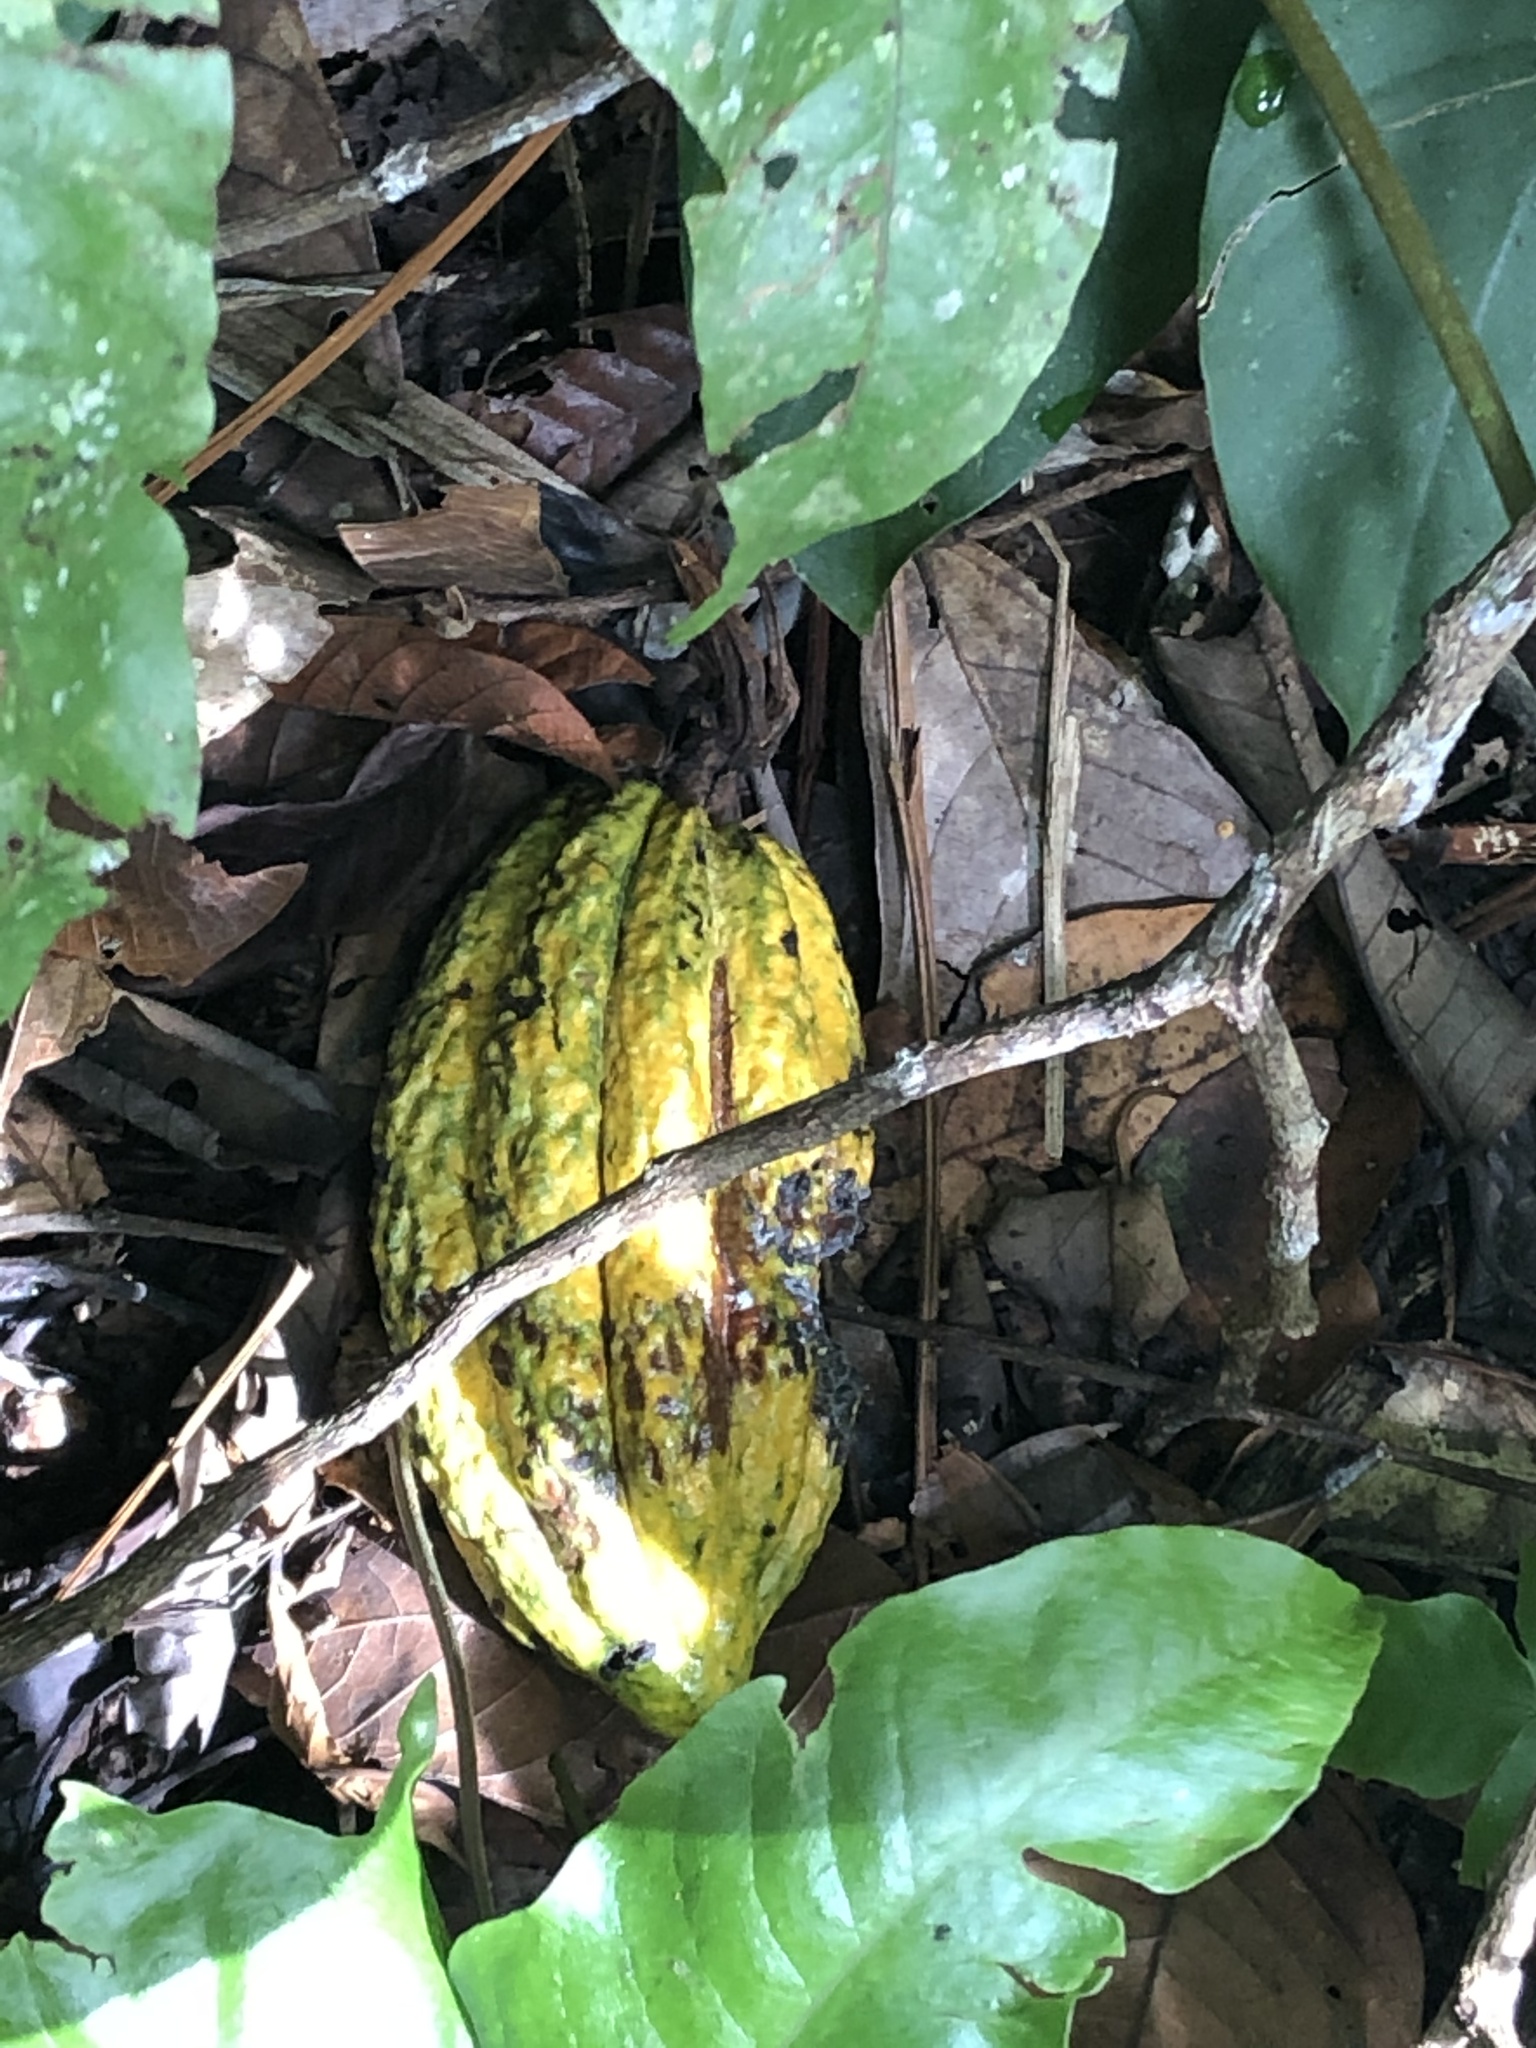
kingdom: Plantae
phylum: Tracheophyta
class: Magnoliopsida
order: Malvales
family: Malvaceae
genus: Theobroma
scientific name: Theobroma cacao
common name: Cocoa
